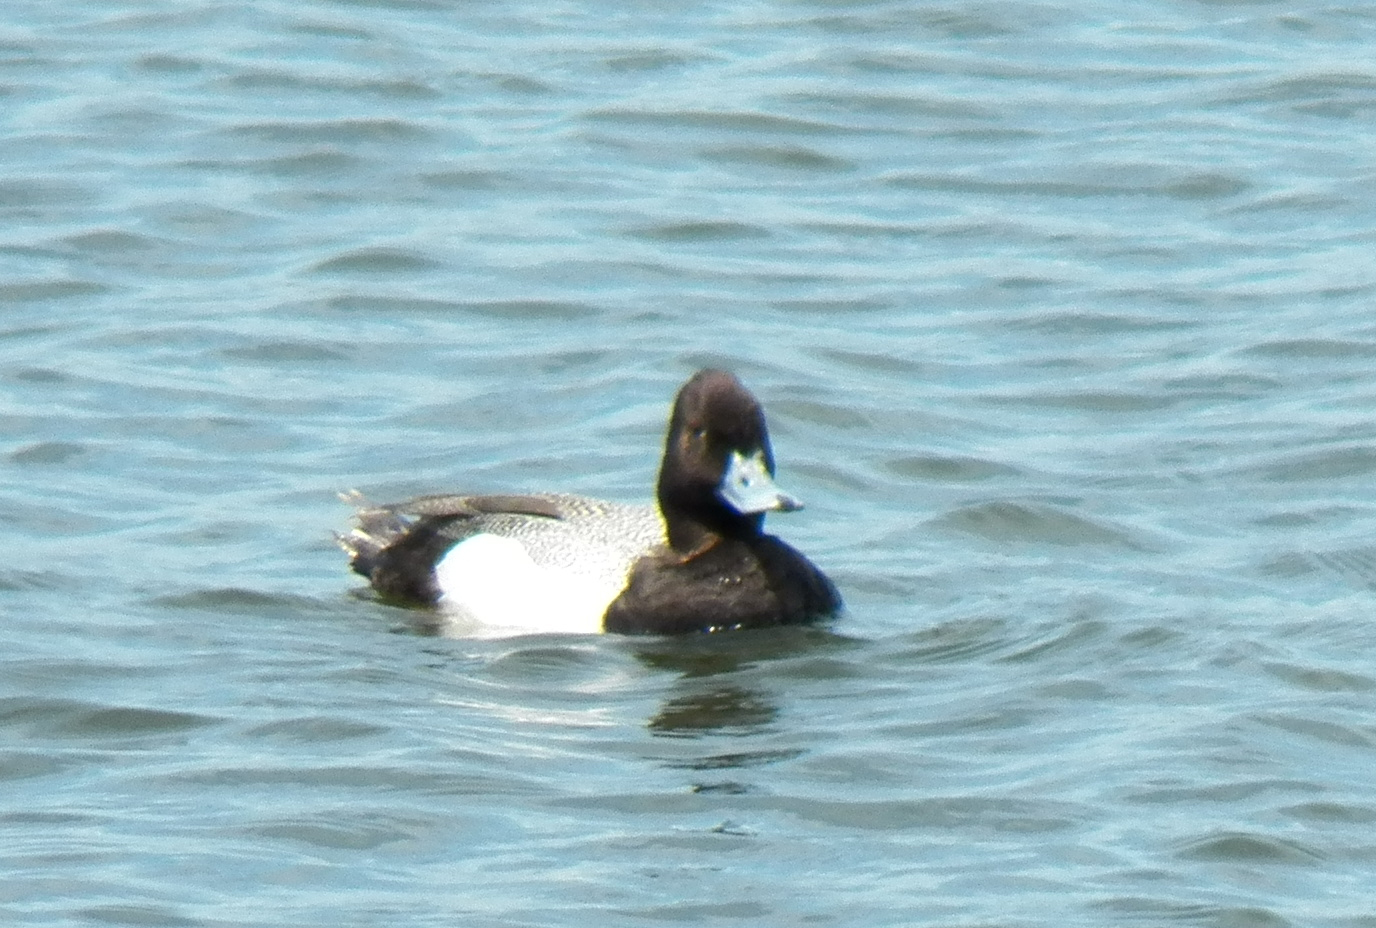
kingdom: Animalia
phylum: Chordata
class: Aves
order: Anseriformes
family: Anatidae
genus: Aythya
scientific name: Aythya affinis
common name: Lesser scaup
